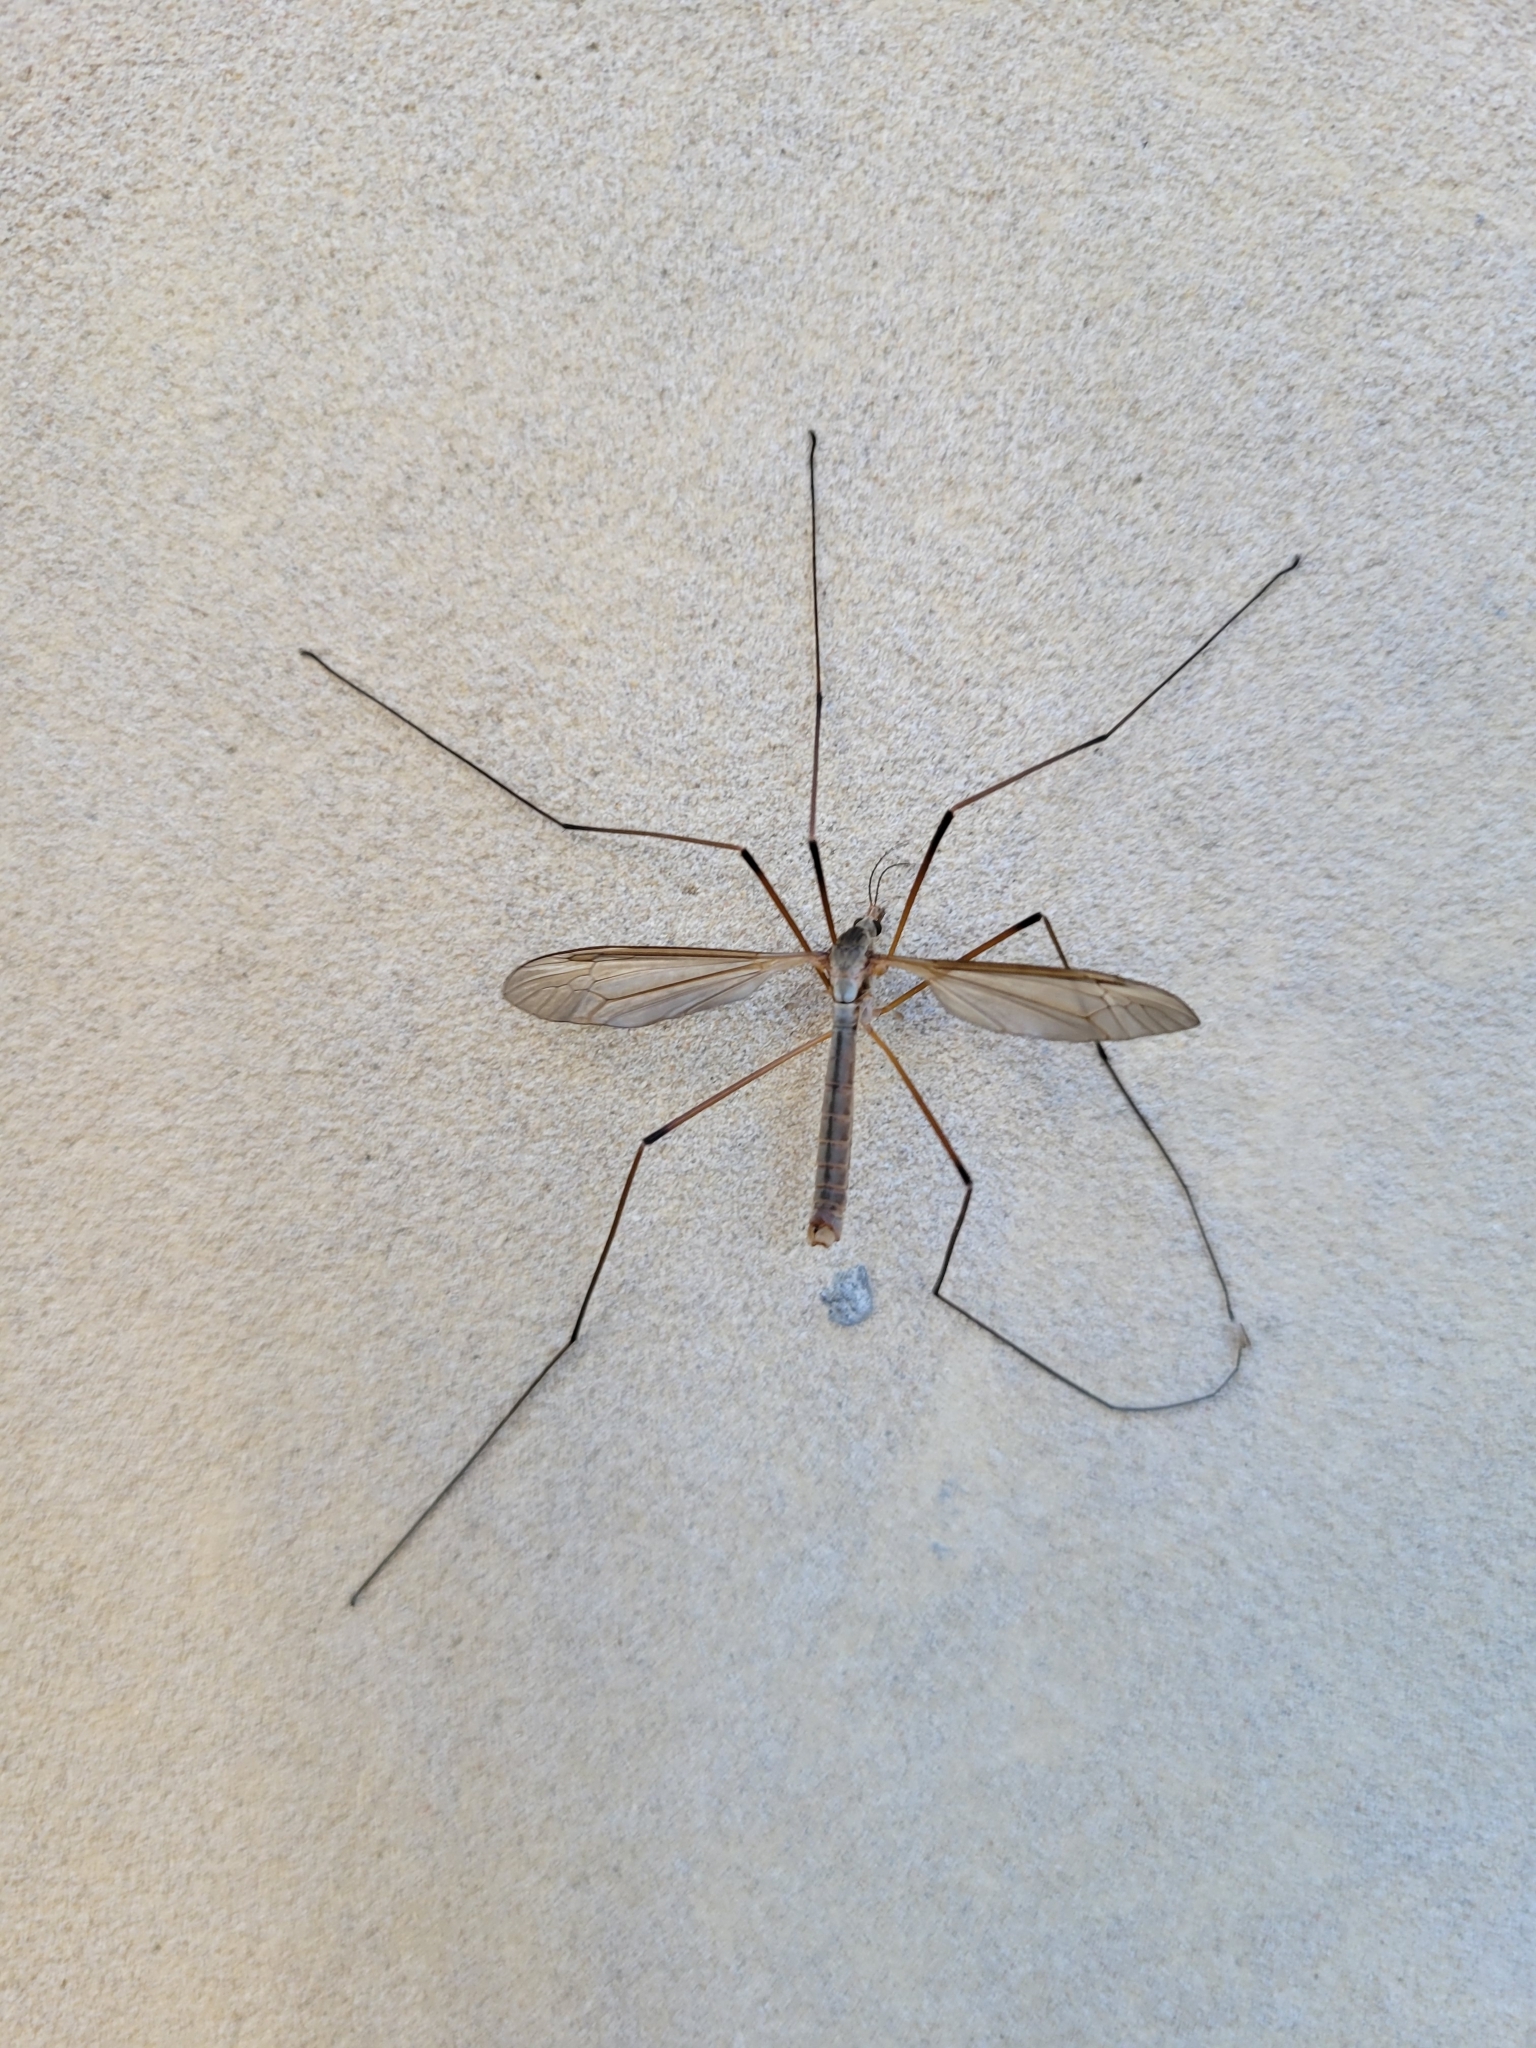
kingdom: Animalia
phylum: Arthropoda
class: Insecta
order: Diptera
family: Tipulidae
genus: Tipula
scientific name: Tipula oleracea
